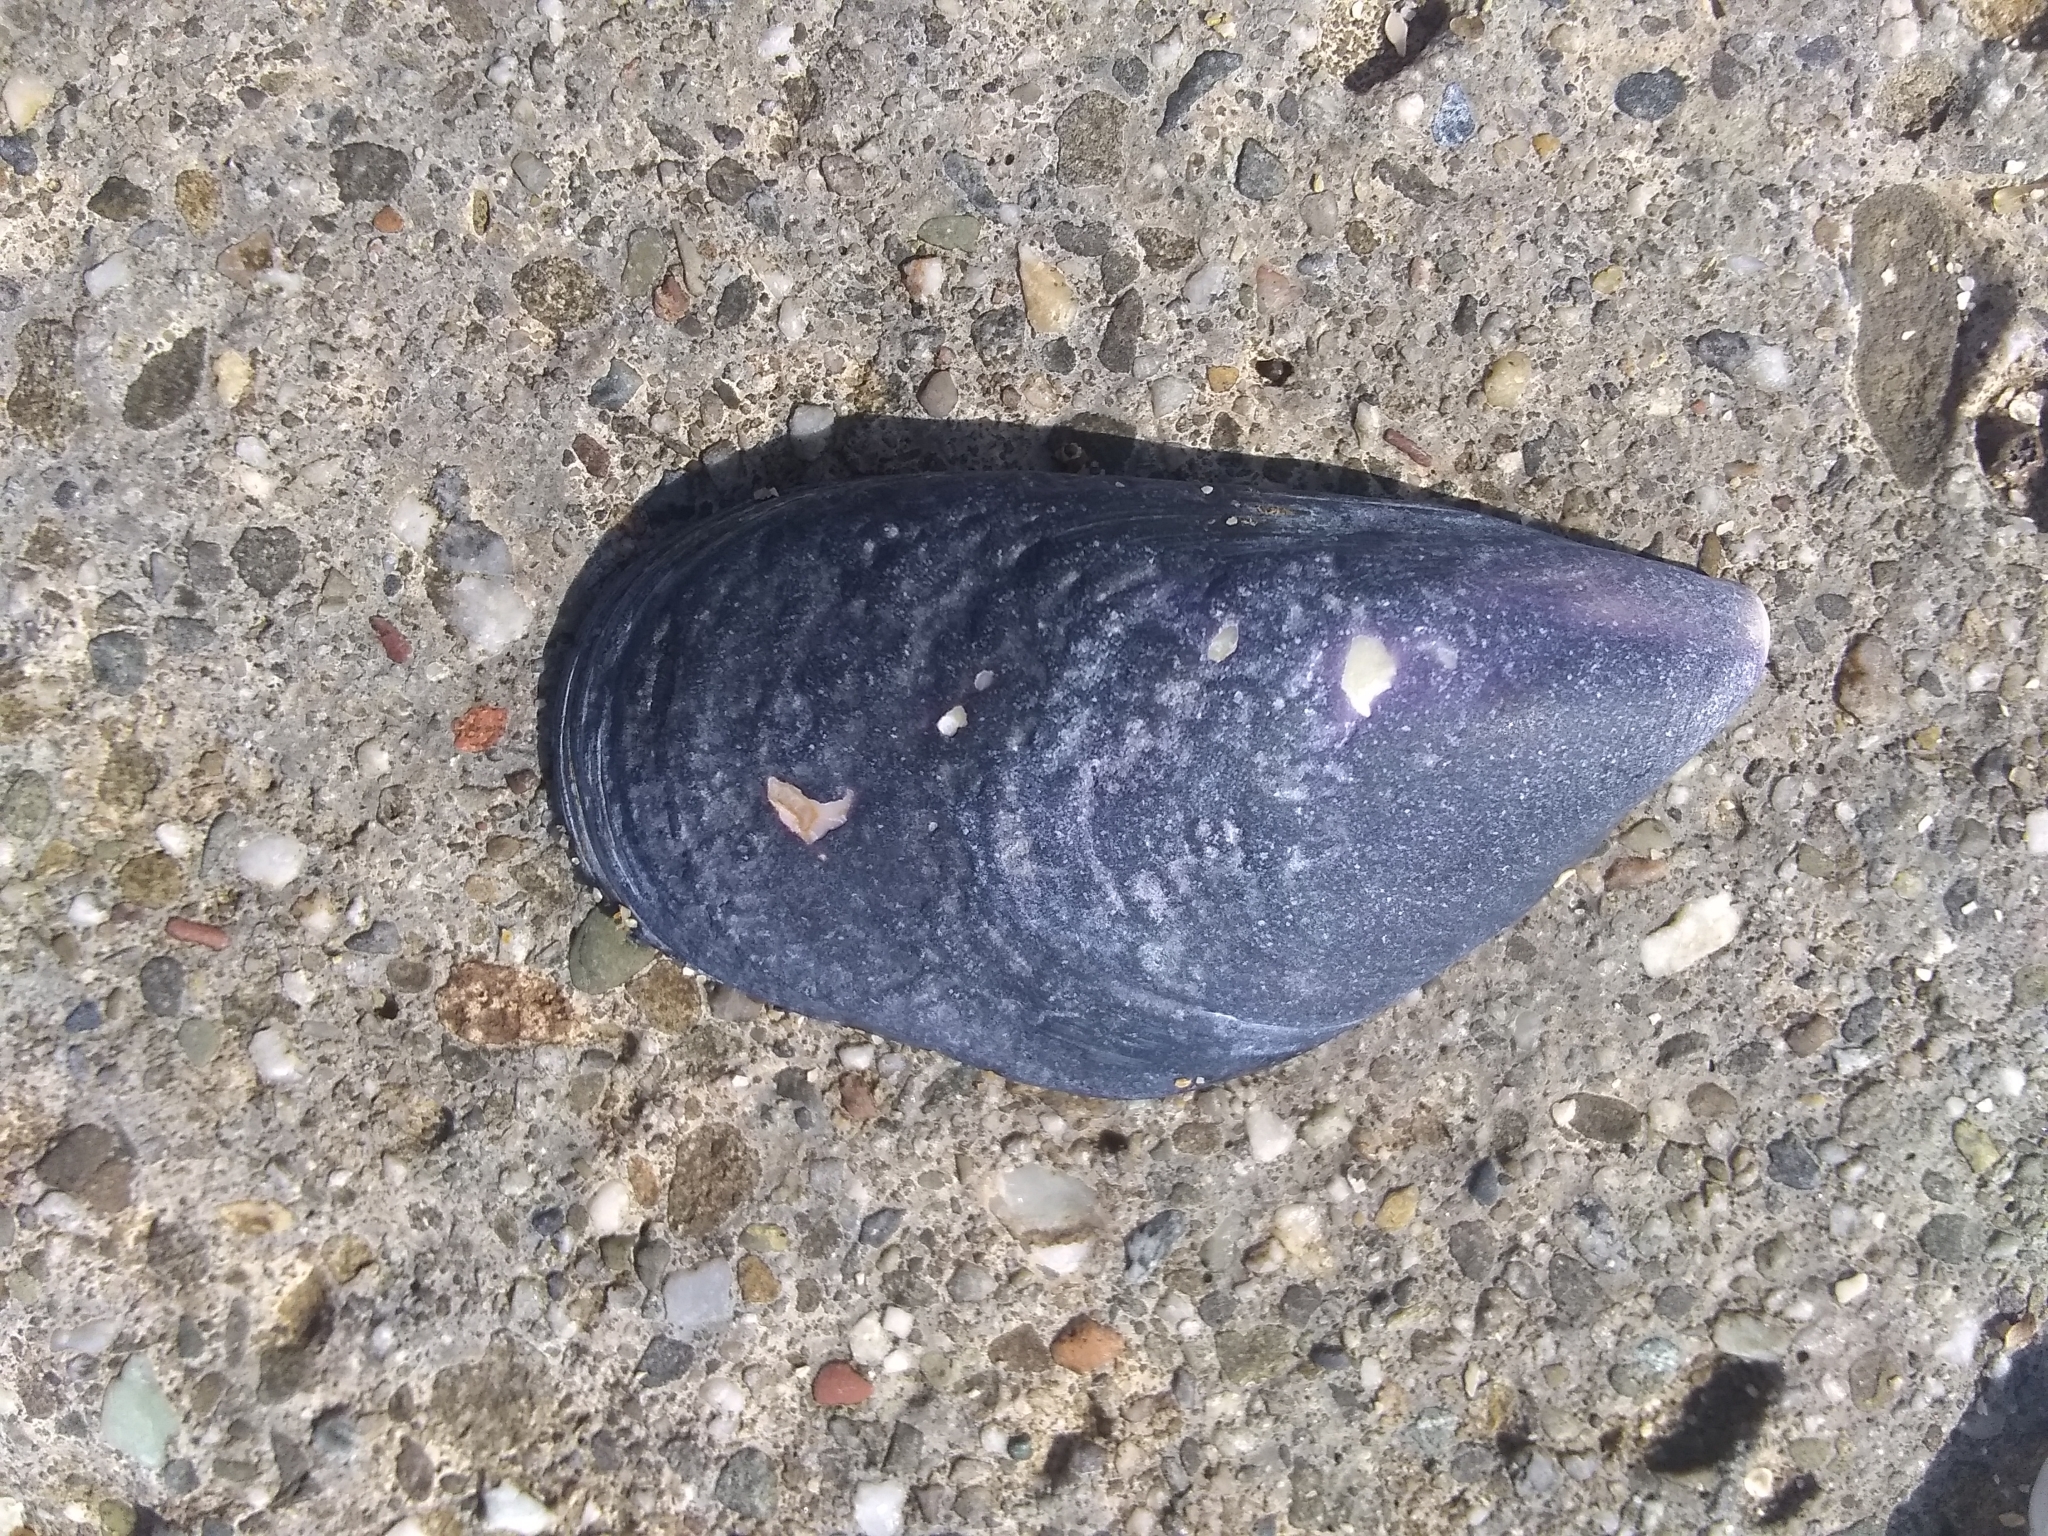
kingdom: Animalia
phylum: Mollusca
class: Bivalvia
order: Mytilida
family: Mytilidae
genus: Mytilus
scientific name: Mytilus
